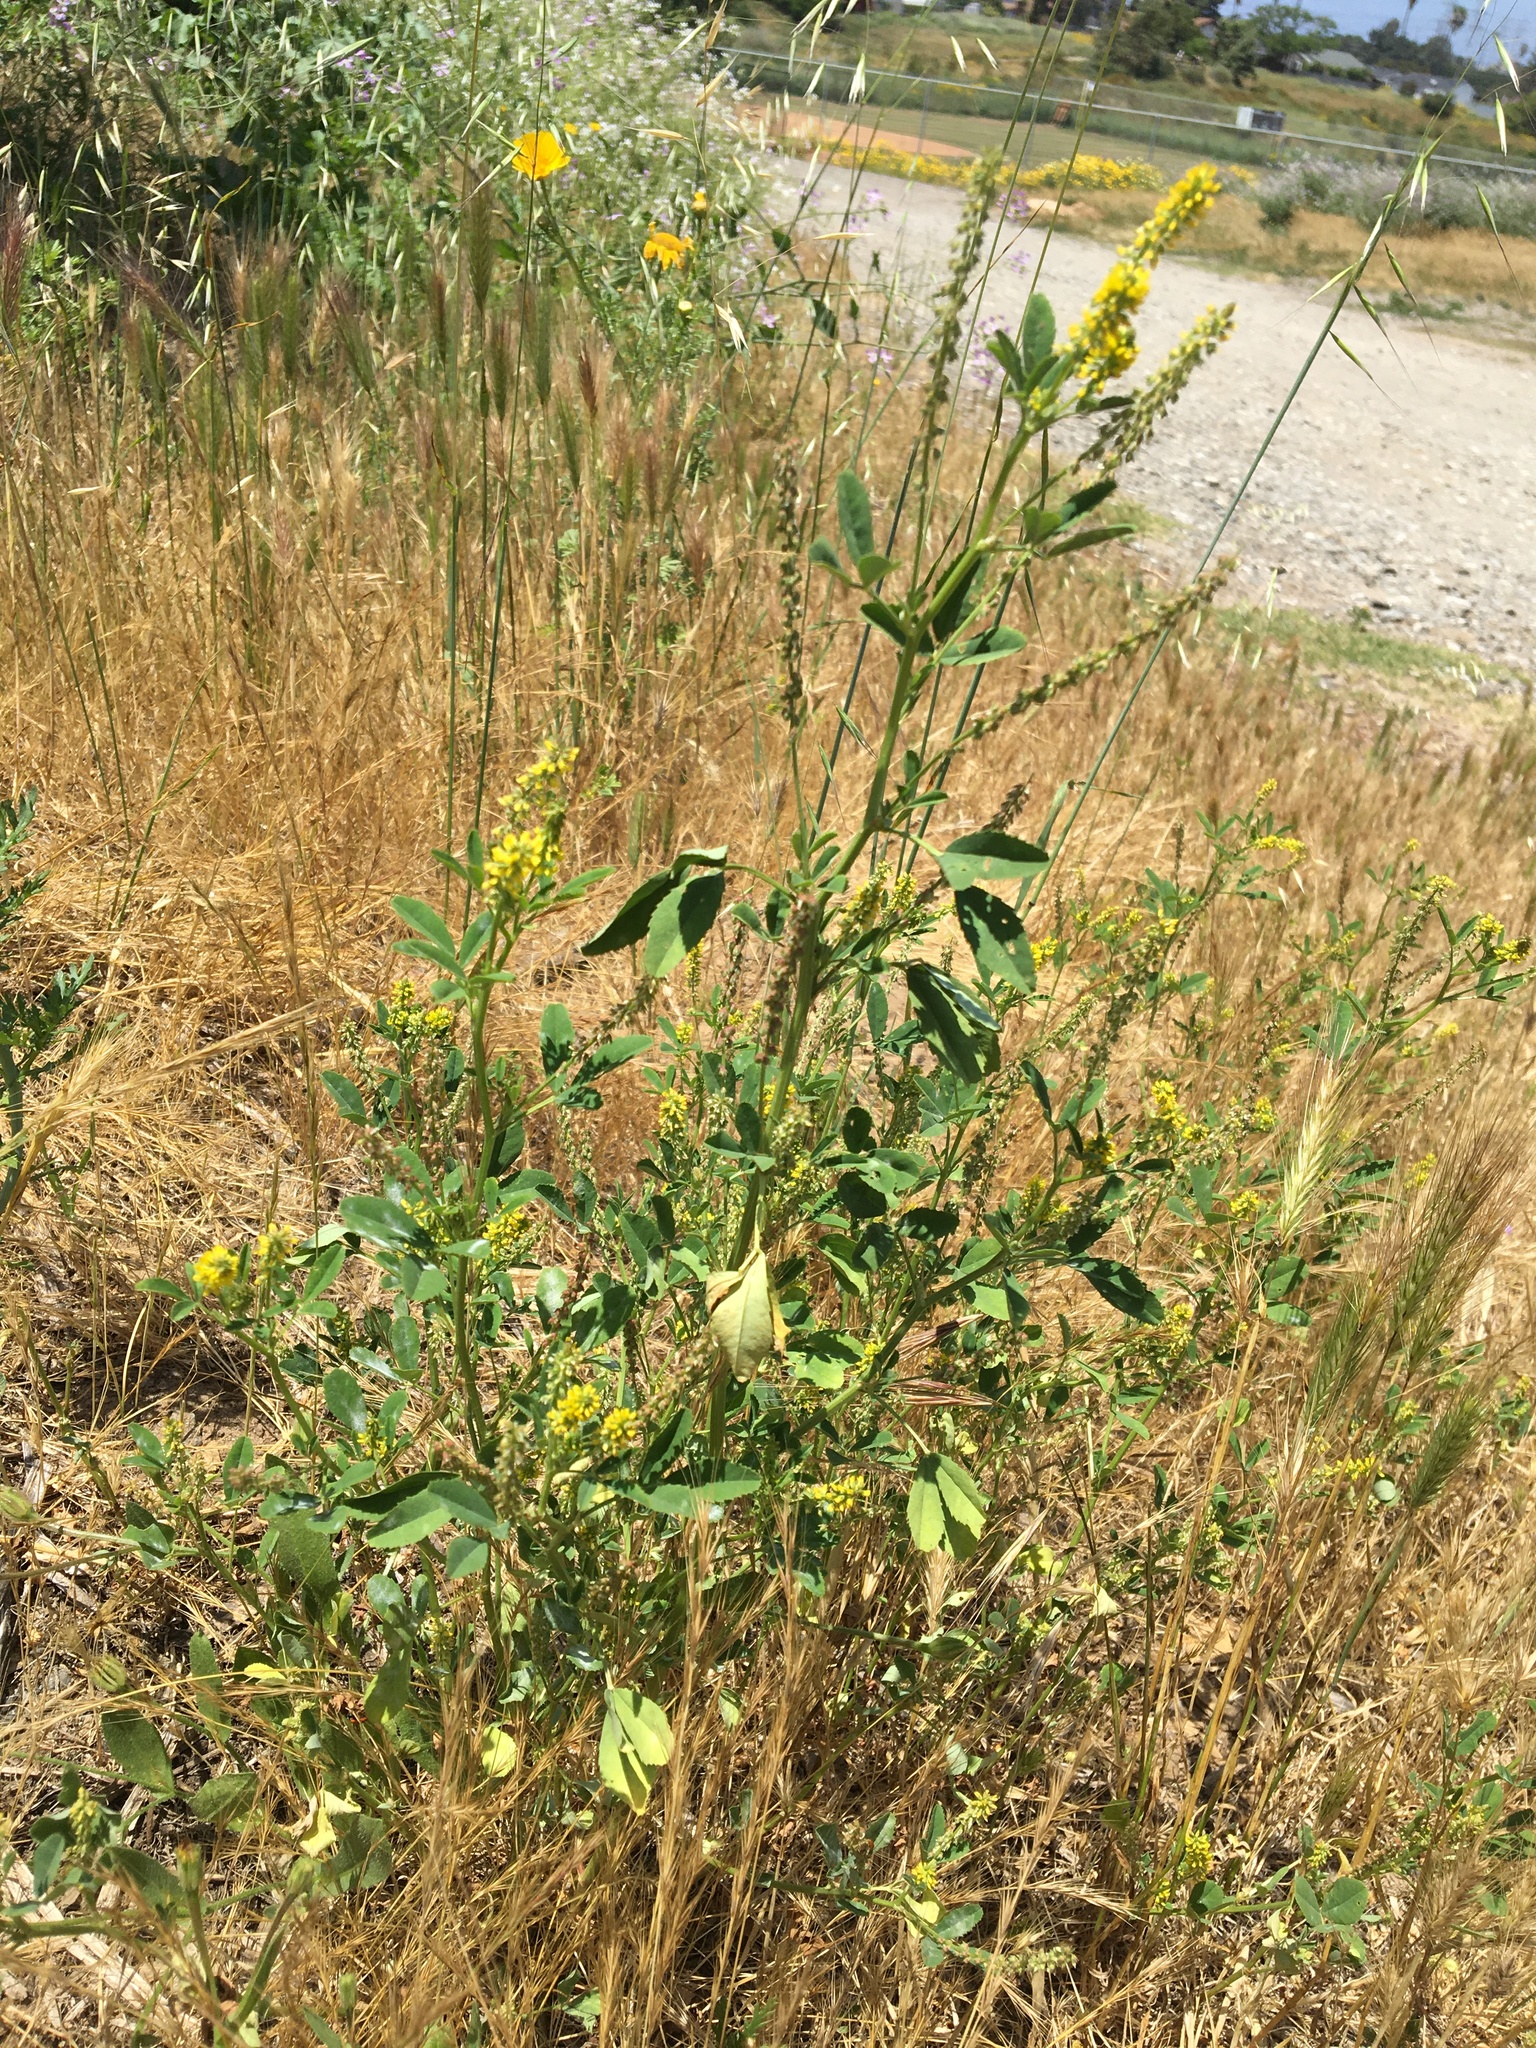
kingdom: Plantae
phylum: Tracheophyta
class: Magnoliopsida
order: Fabales
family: Fabaceae
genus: Melilotus
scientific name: Melilotus indicus
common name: Small melilot
